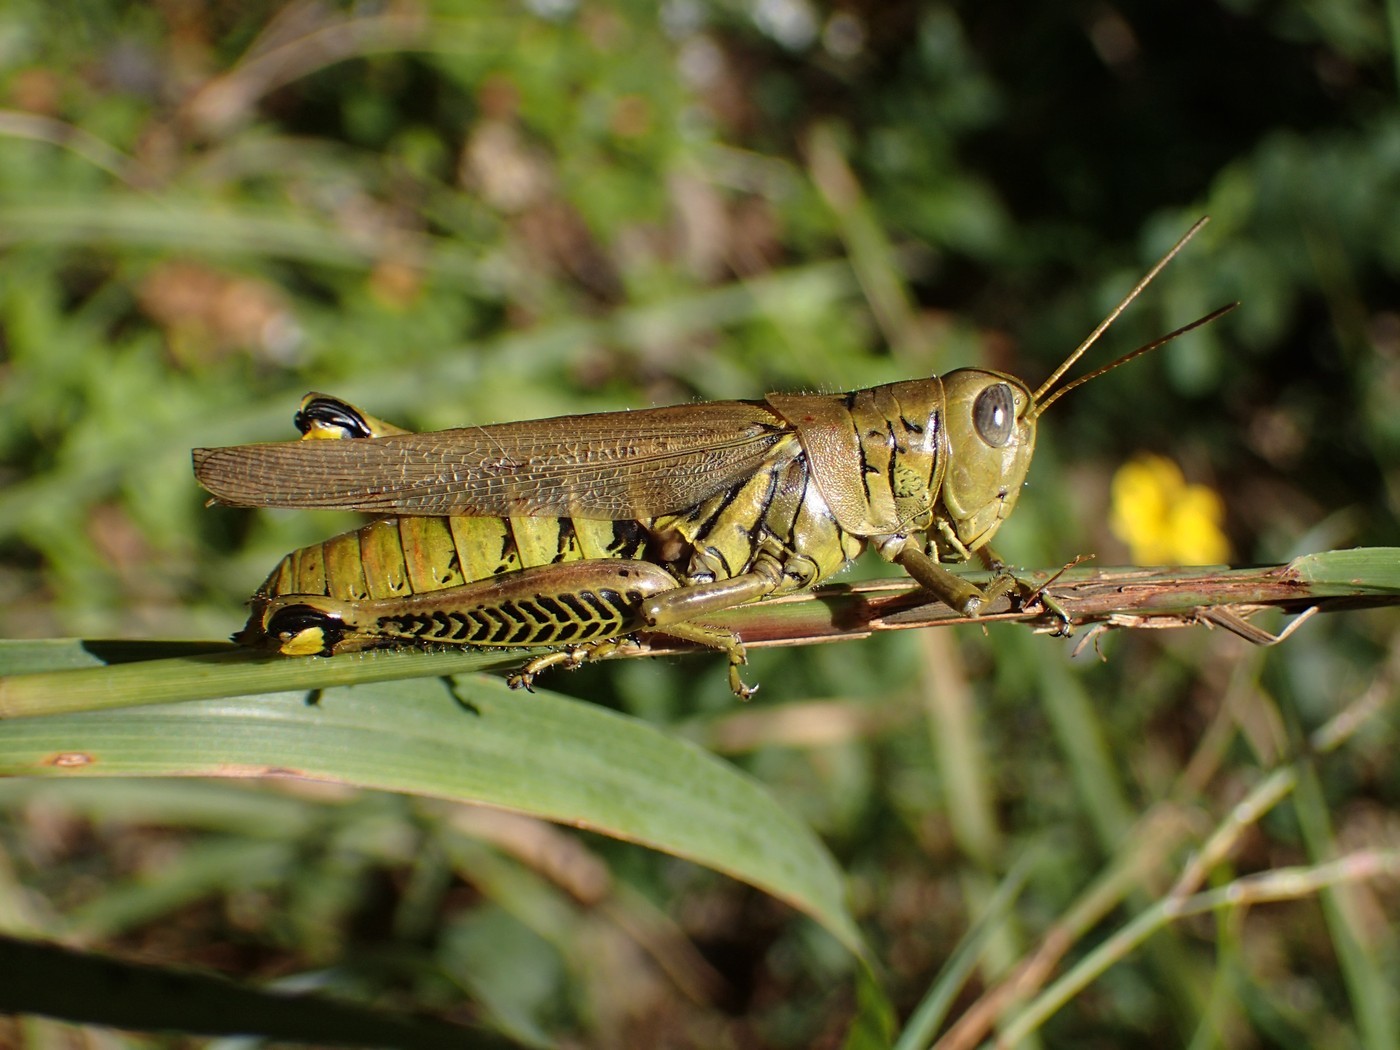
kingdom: Animalia
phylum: Arthropoda
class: Insecta
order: Orthoptera
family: Acrididae
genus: Melanoplus
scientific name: Melanoplus differentialis
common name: Differential grasshopper
